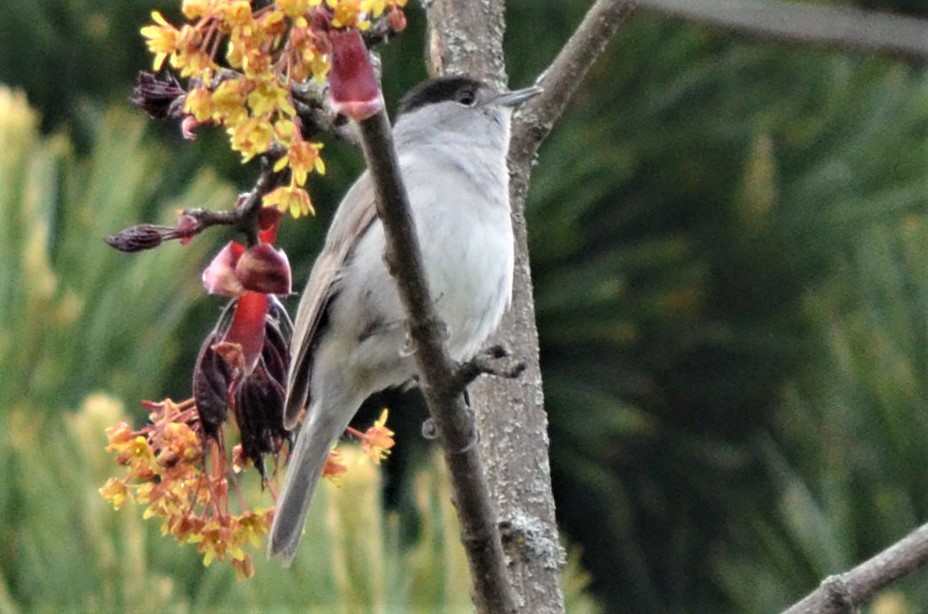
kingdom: Animalia
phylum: Chordata
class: Aves
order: Passeriformes
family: Sylviidae
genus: Sylvia
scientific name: Sylvia atricapilla
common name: Eurasian blackcap
